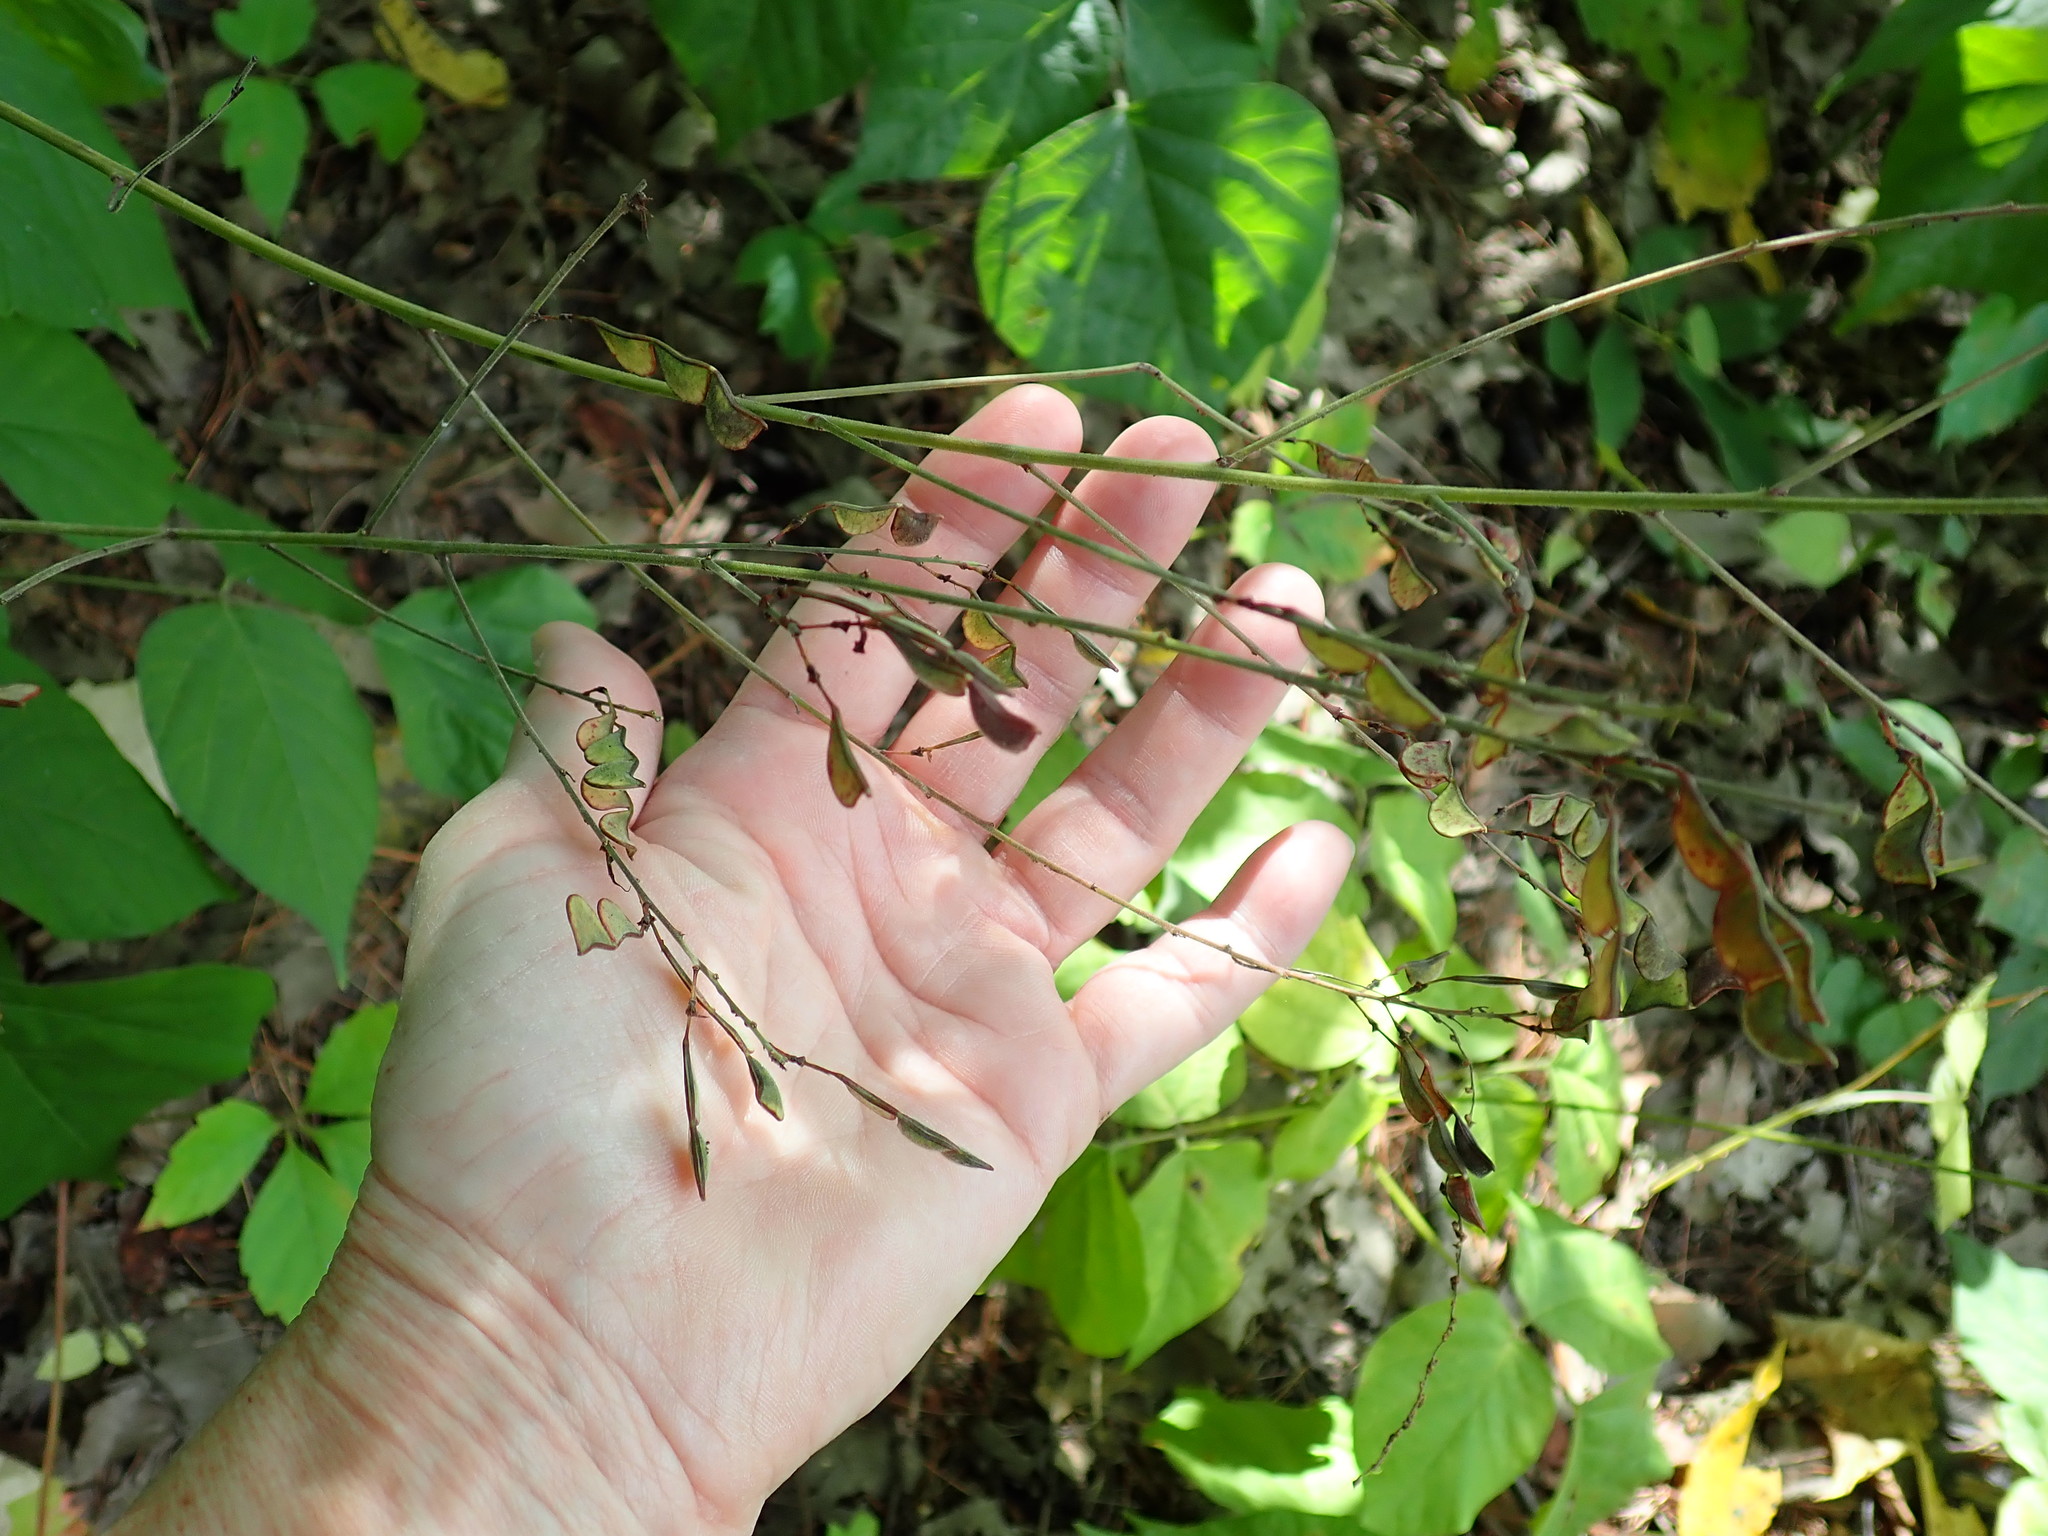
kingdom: Plantae
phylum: Tracheophyta
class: Magnoliopsida
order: Fabales
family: Fabaceae
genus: Hylodesmum
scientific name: Hylodesmum glutinosum
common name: Clustered-leaved tick-trefoil
